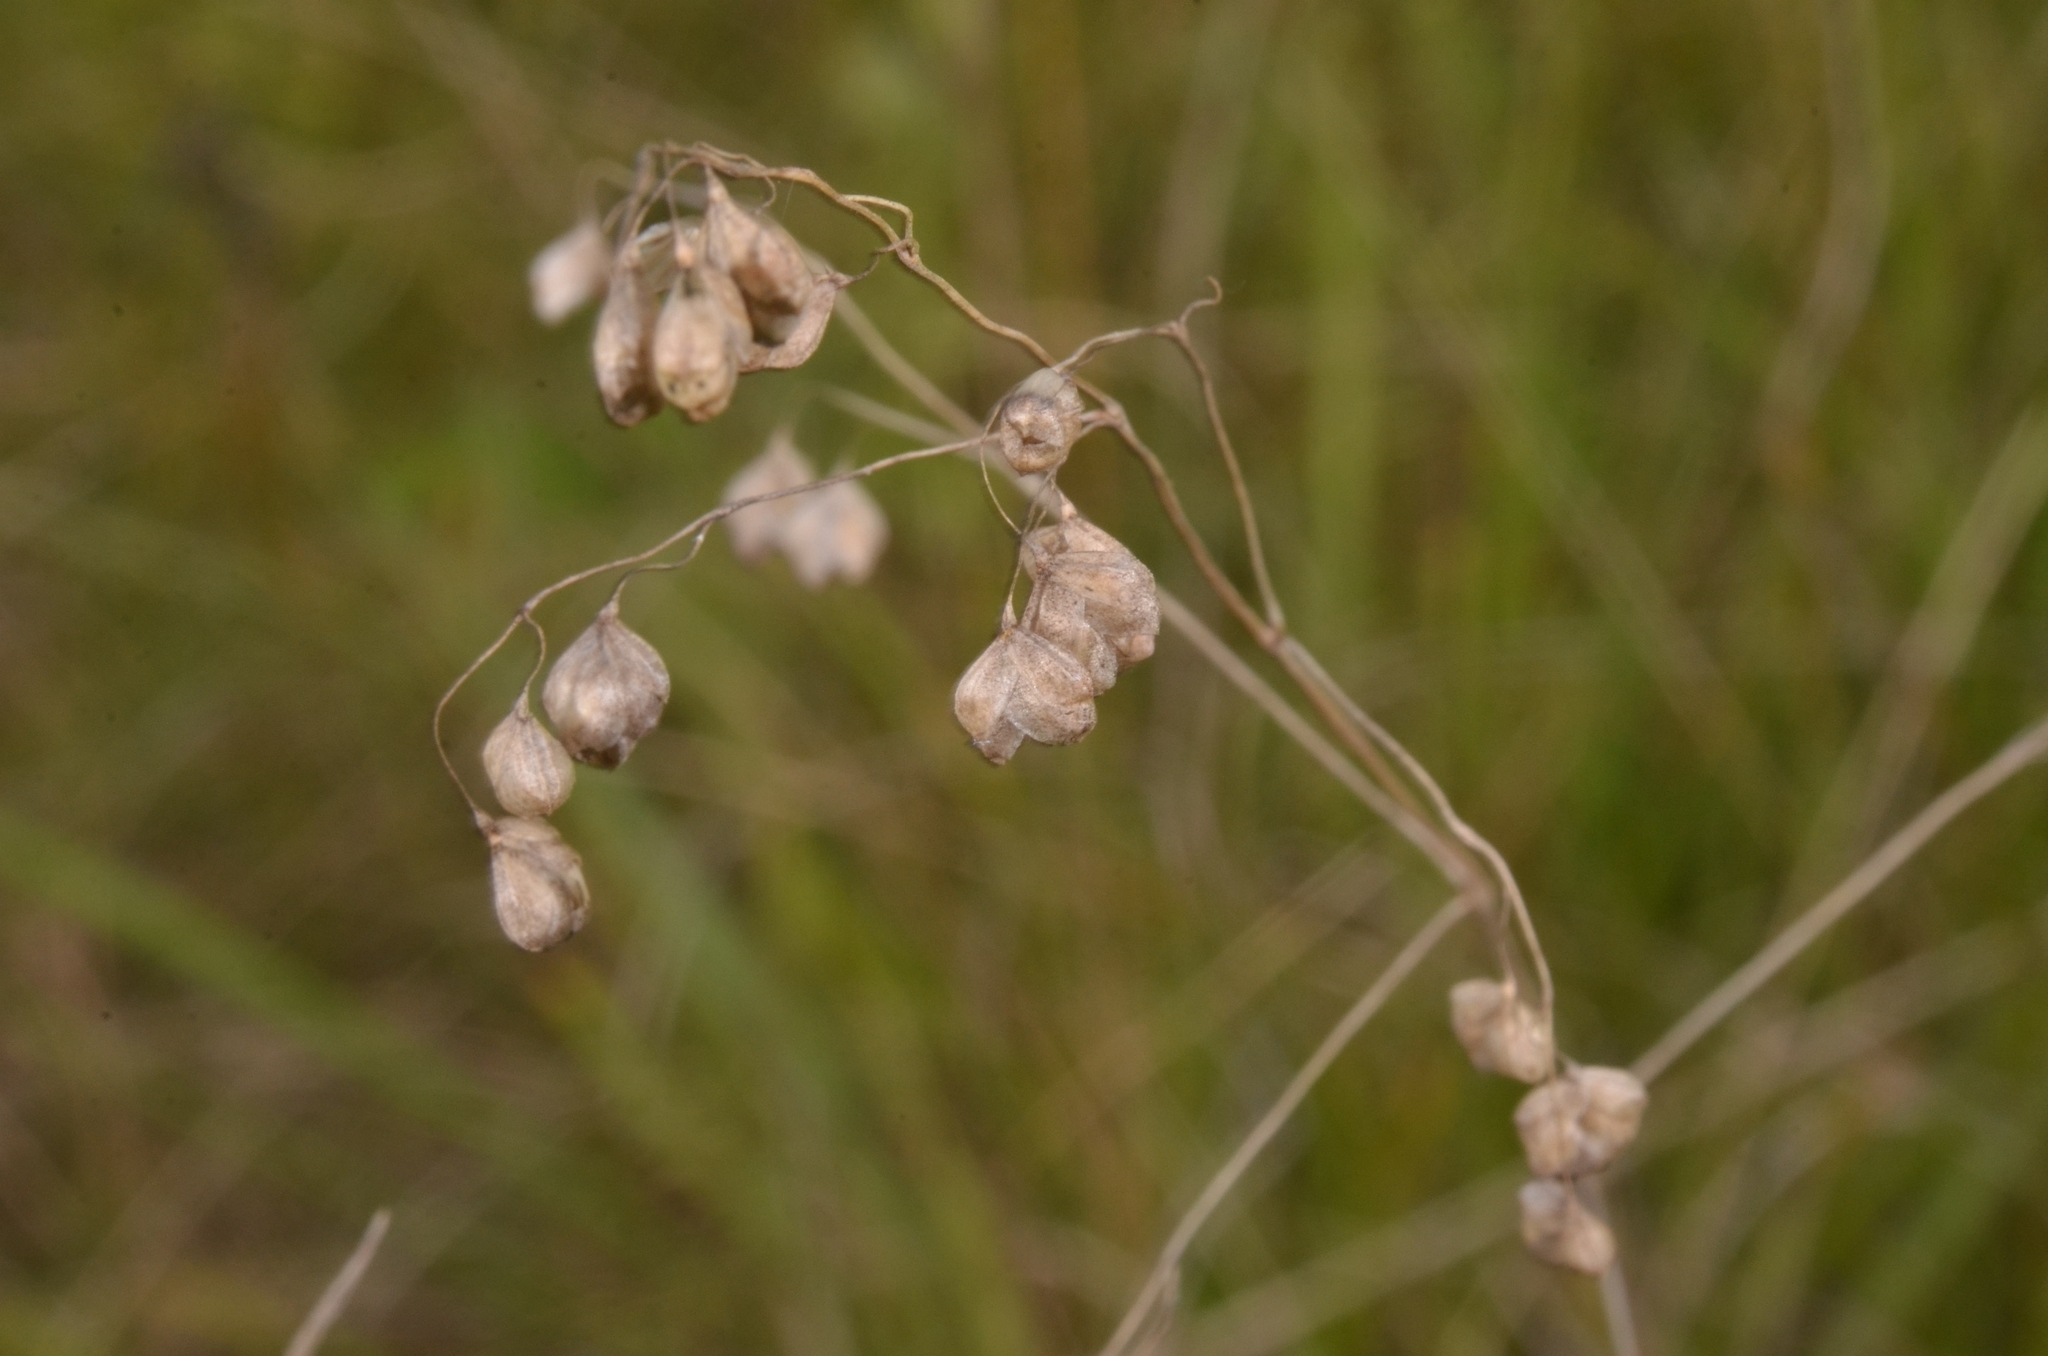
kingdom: Plantae
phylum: Tracheophyta
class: Liliopsida
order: Poales
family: Poaceae
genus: Briza
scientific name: Briza media
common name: Quaking grass
